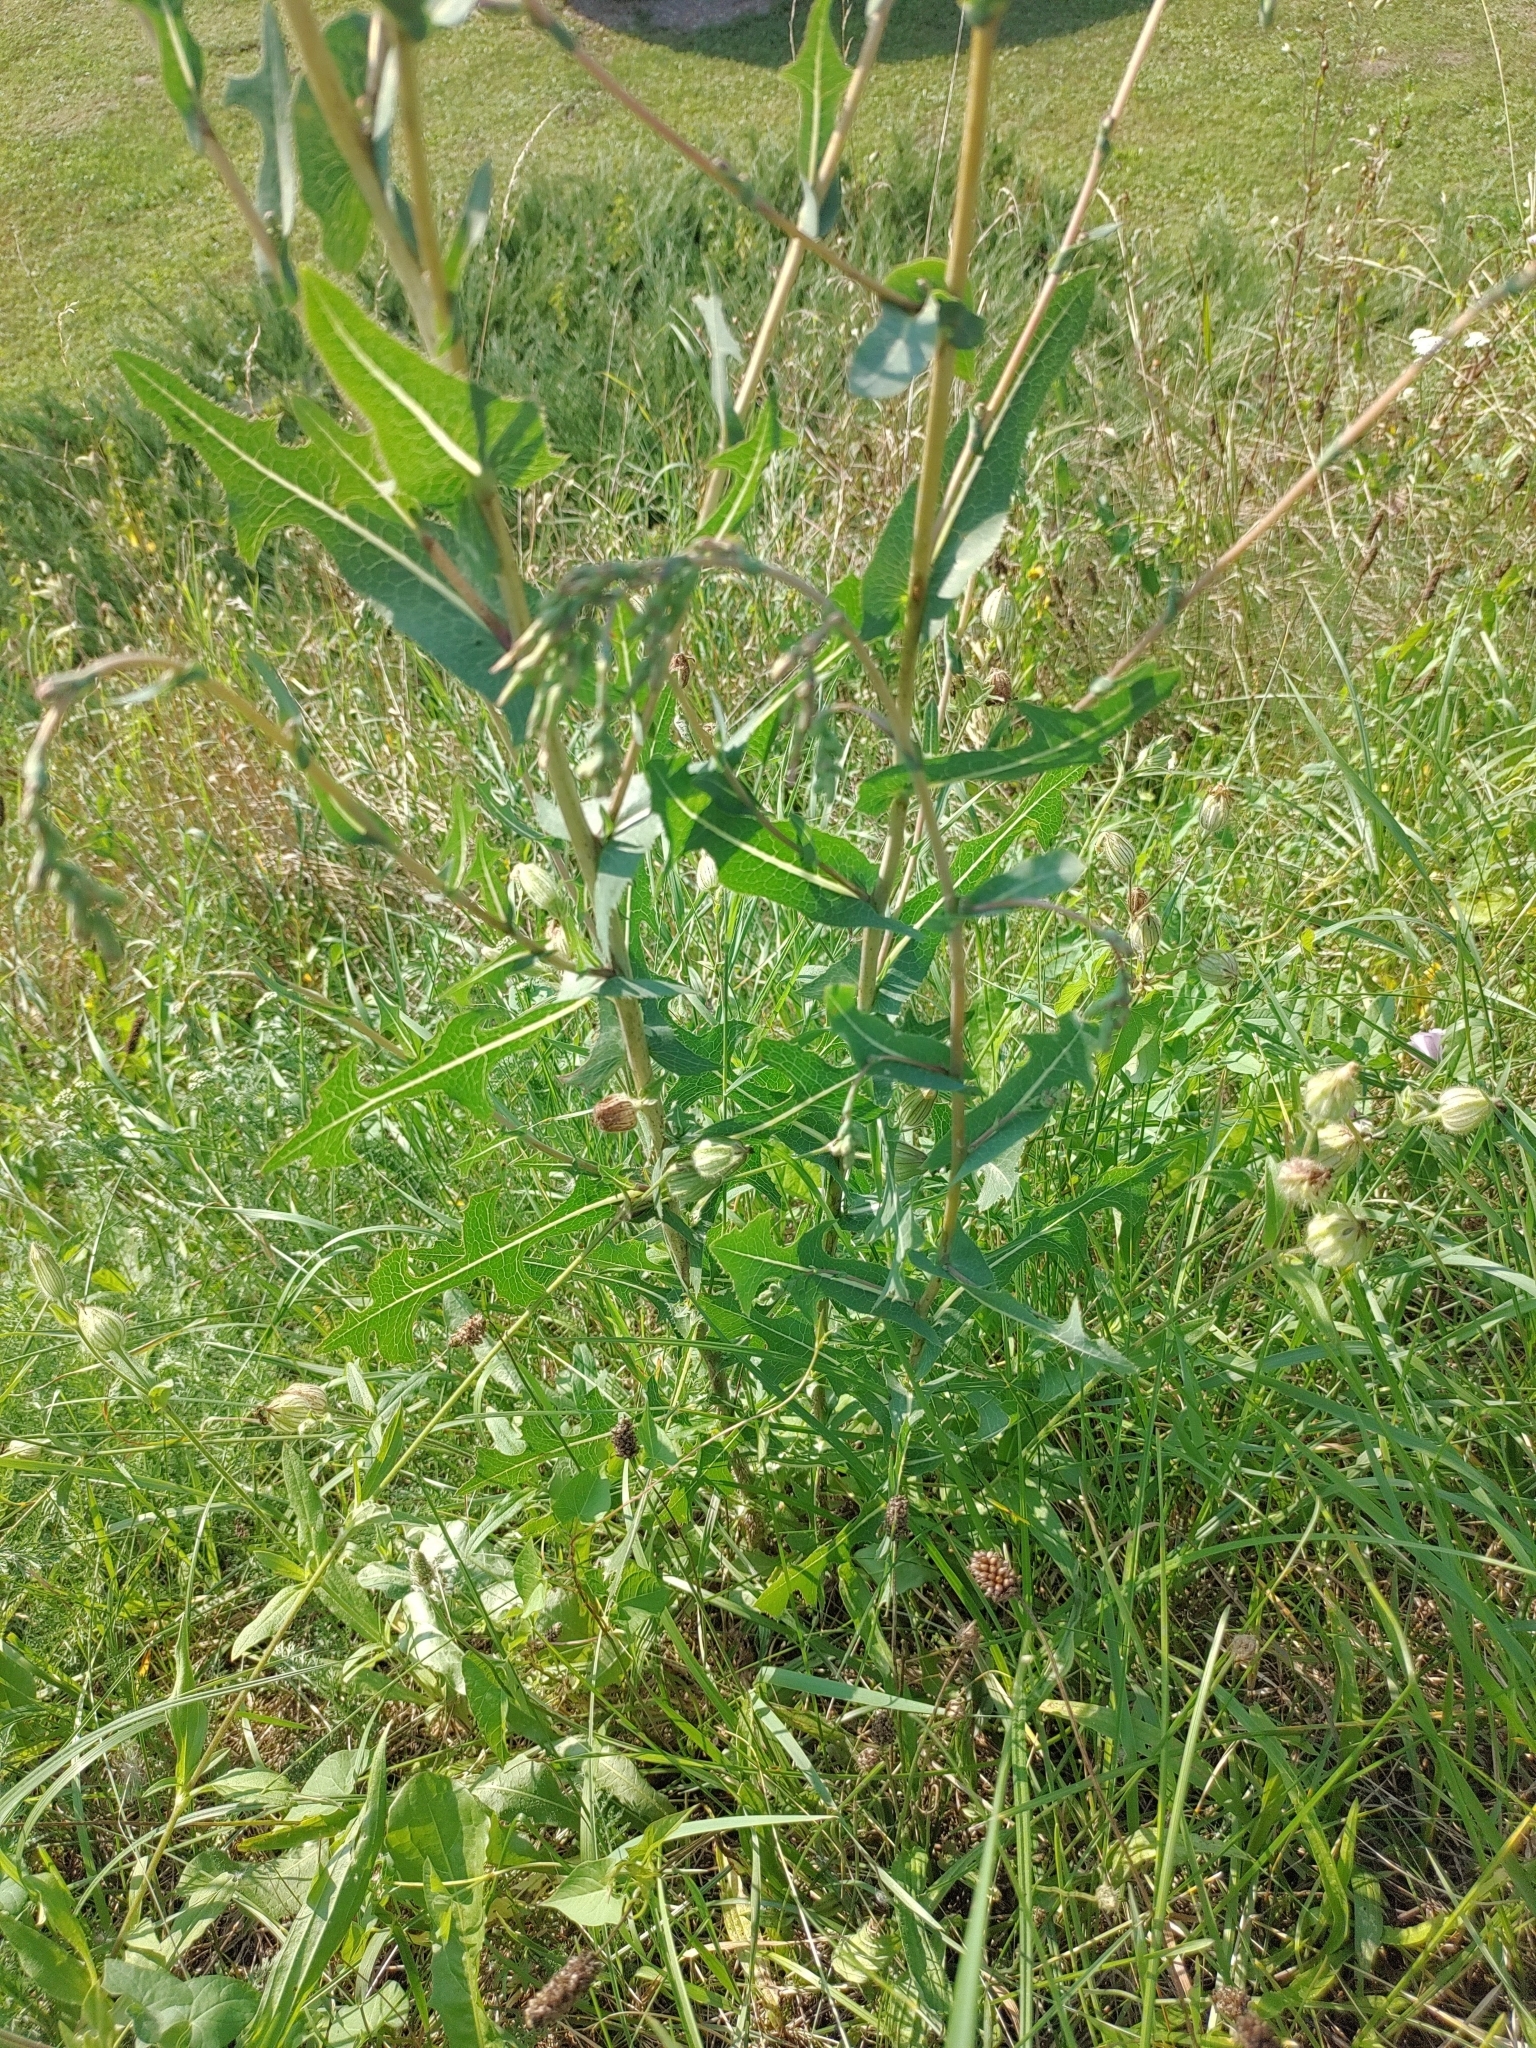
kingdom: Plantae
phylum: Tracheophyta
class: Magnoliopsida
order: Asterales
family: Asteraceae
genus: Lactuca
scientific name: Lactuca serriola
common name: Prickly lettuce
